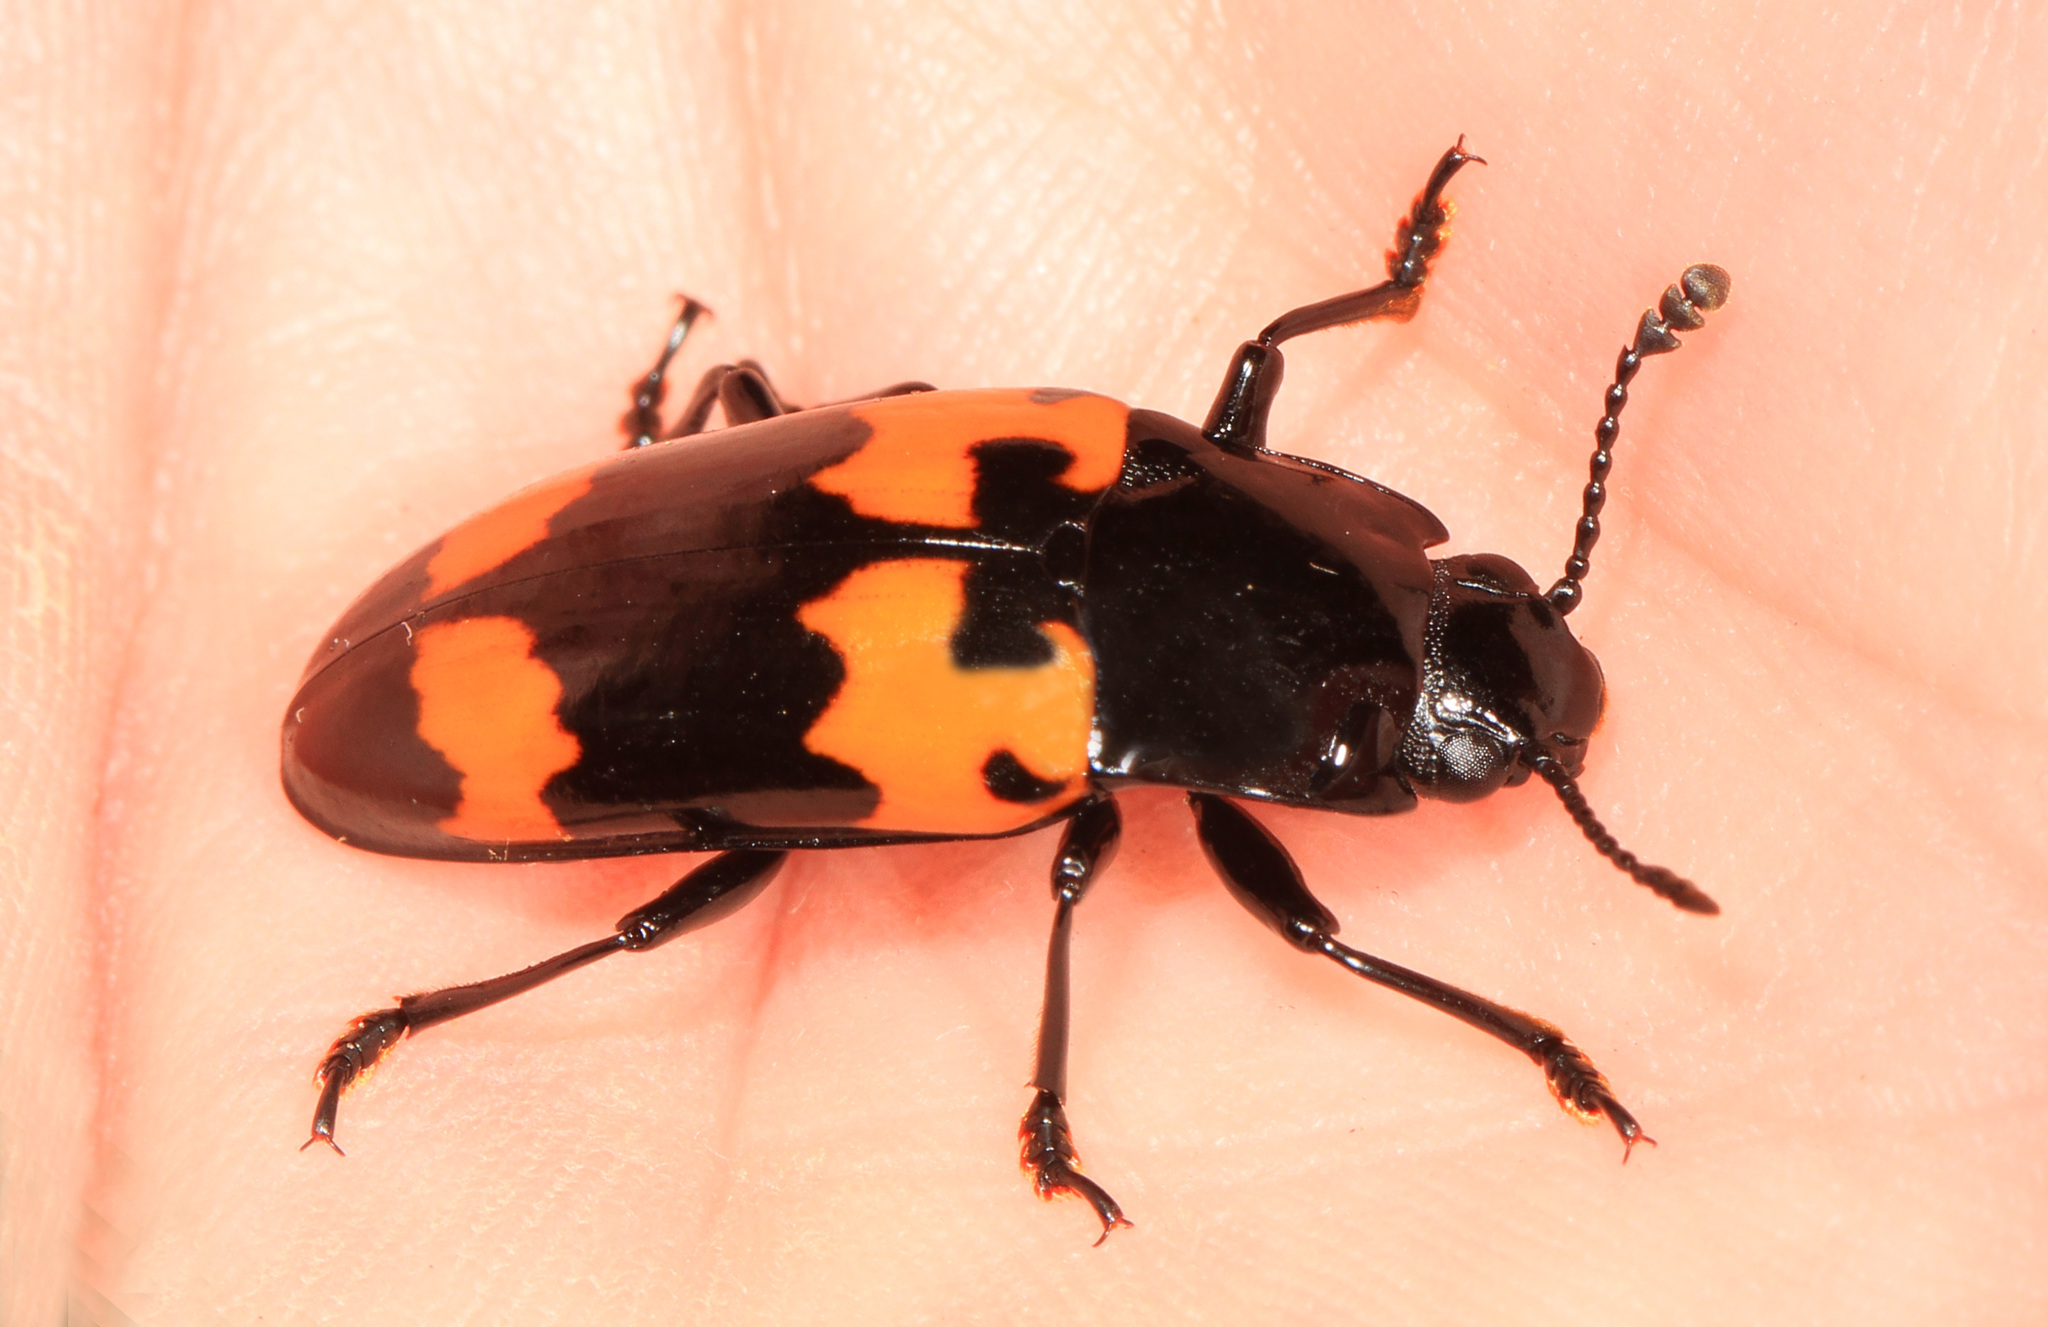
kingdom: Animalia
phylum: Arthropoda
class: Insecta
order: Coleoptera
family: Erotylidae
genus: Megalodacne
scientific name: Megalodacne heros
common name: Pleasing fungus beetle
